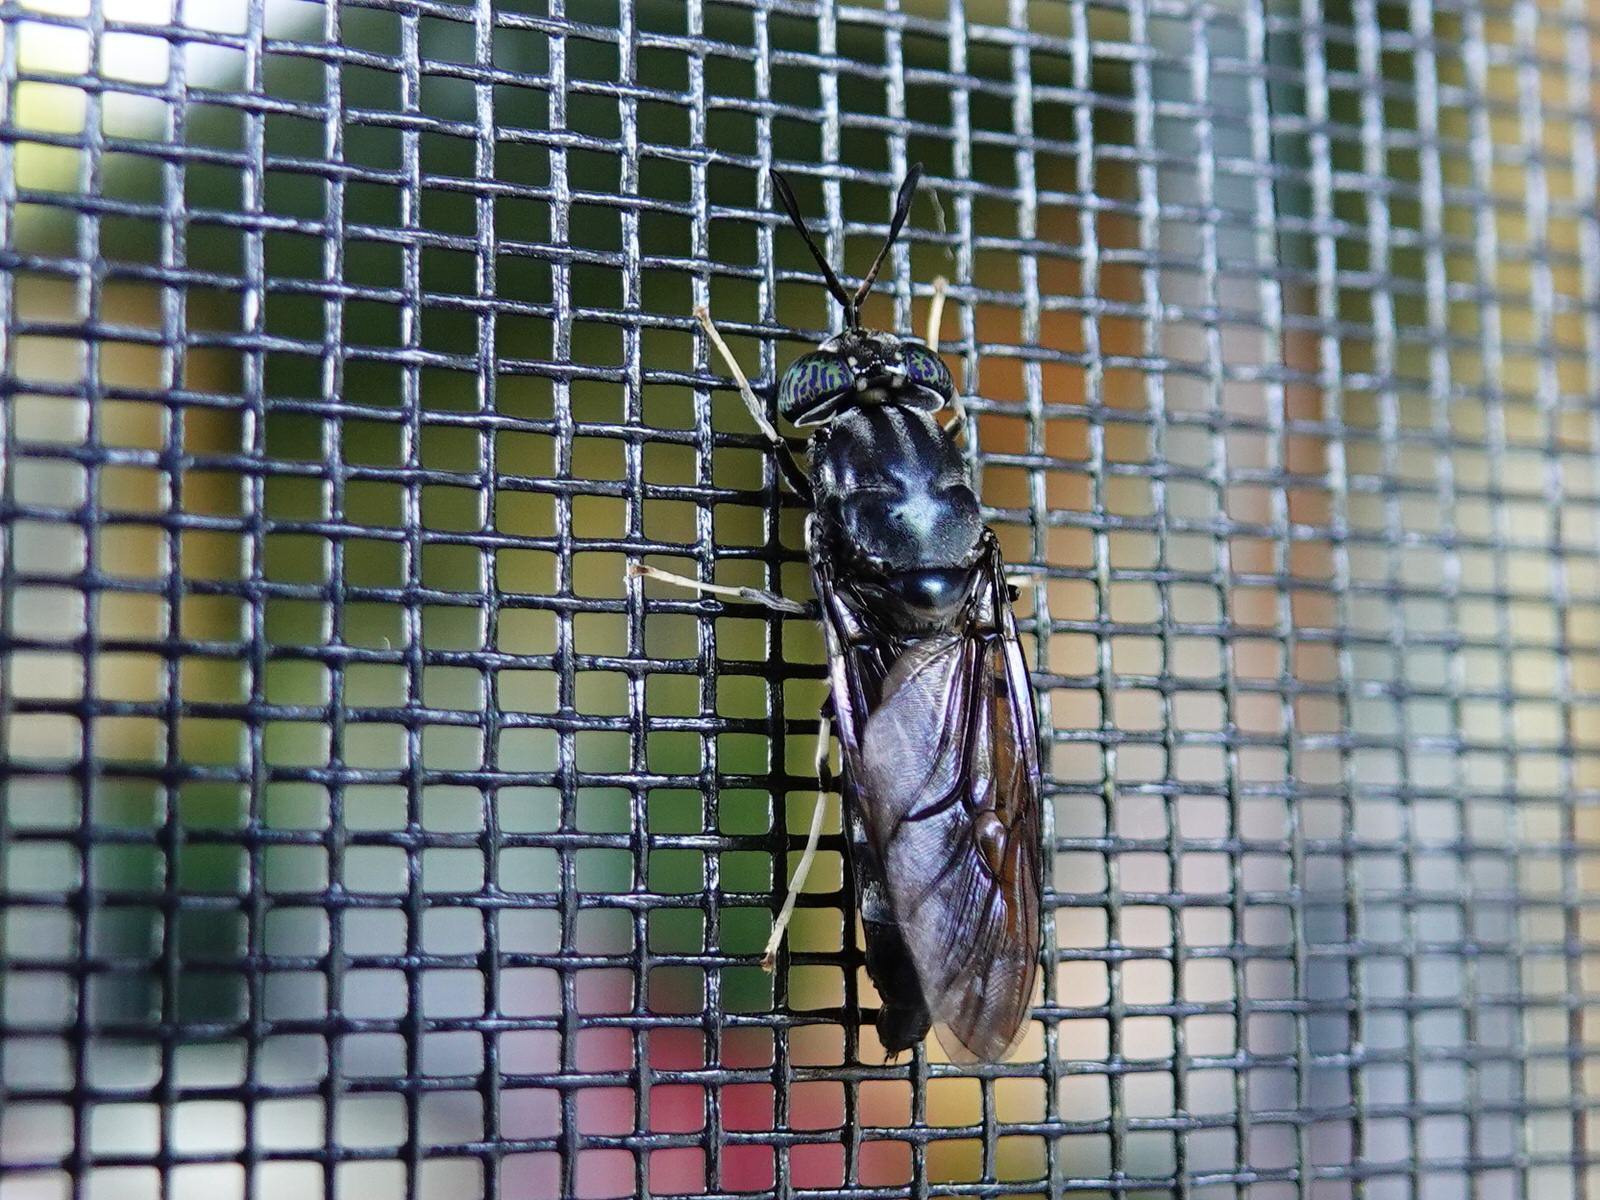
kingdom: Animalia
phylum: Arthropoda
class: Insecta
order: Diptera
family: Stratiomyidae
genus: Hermetia
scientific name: Hermetia illucens
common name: Black soldier fly
